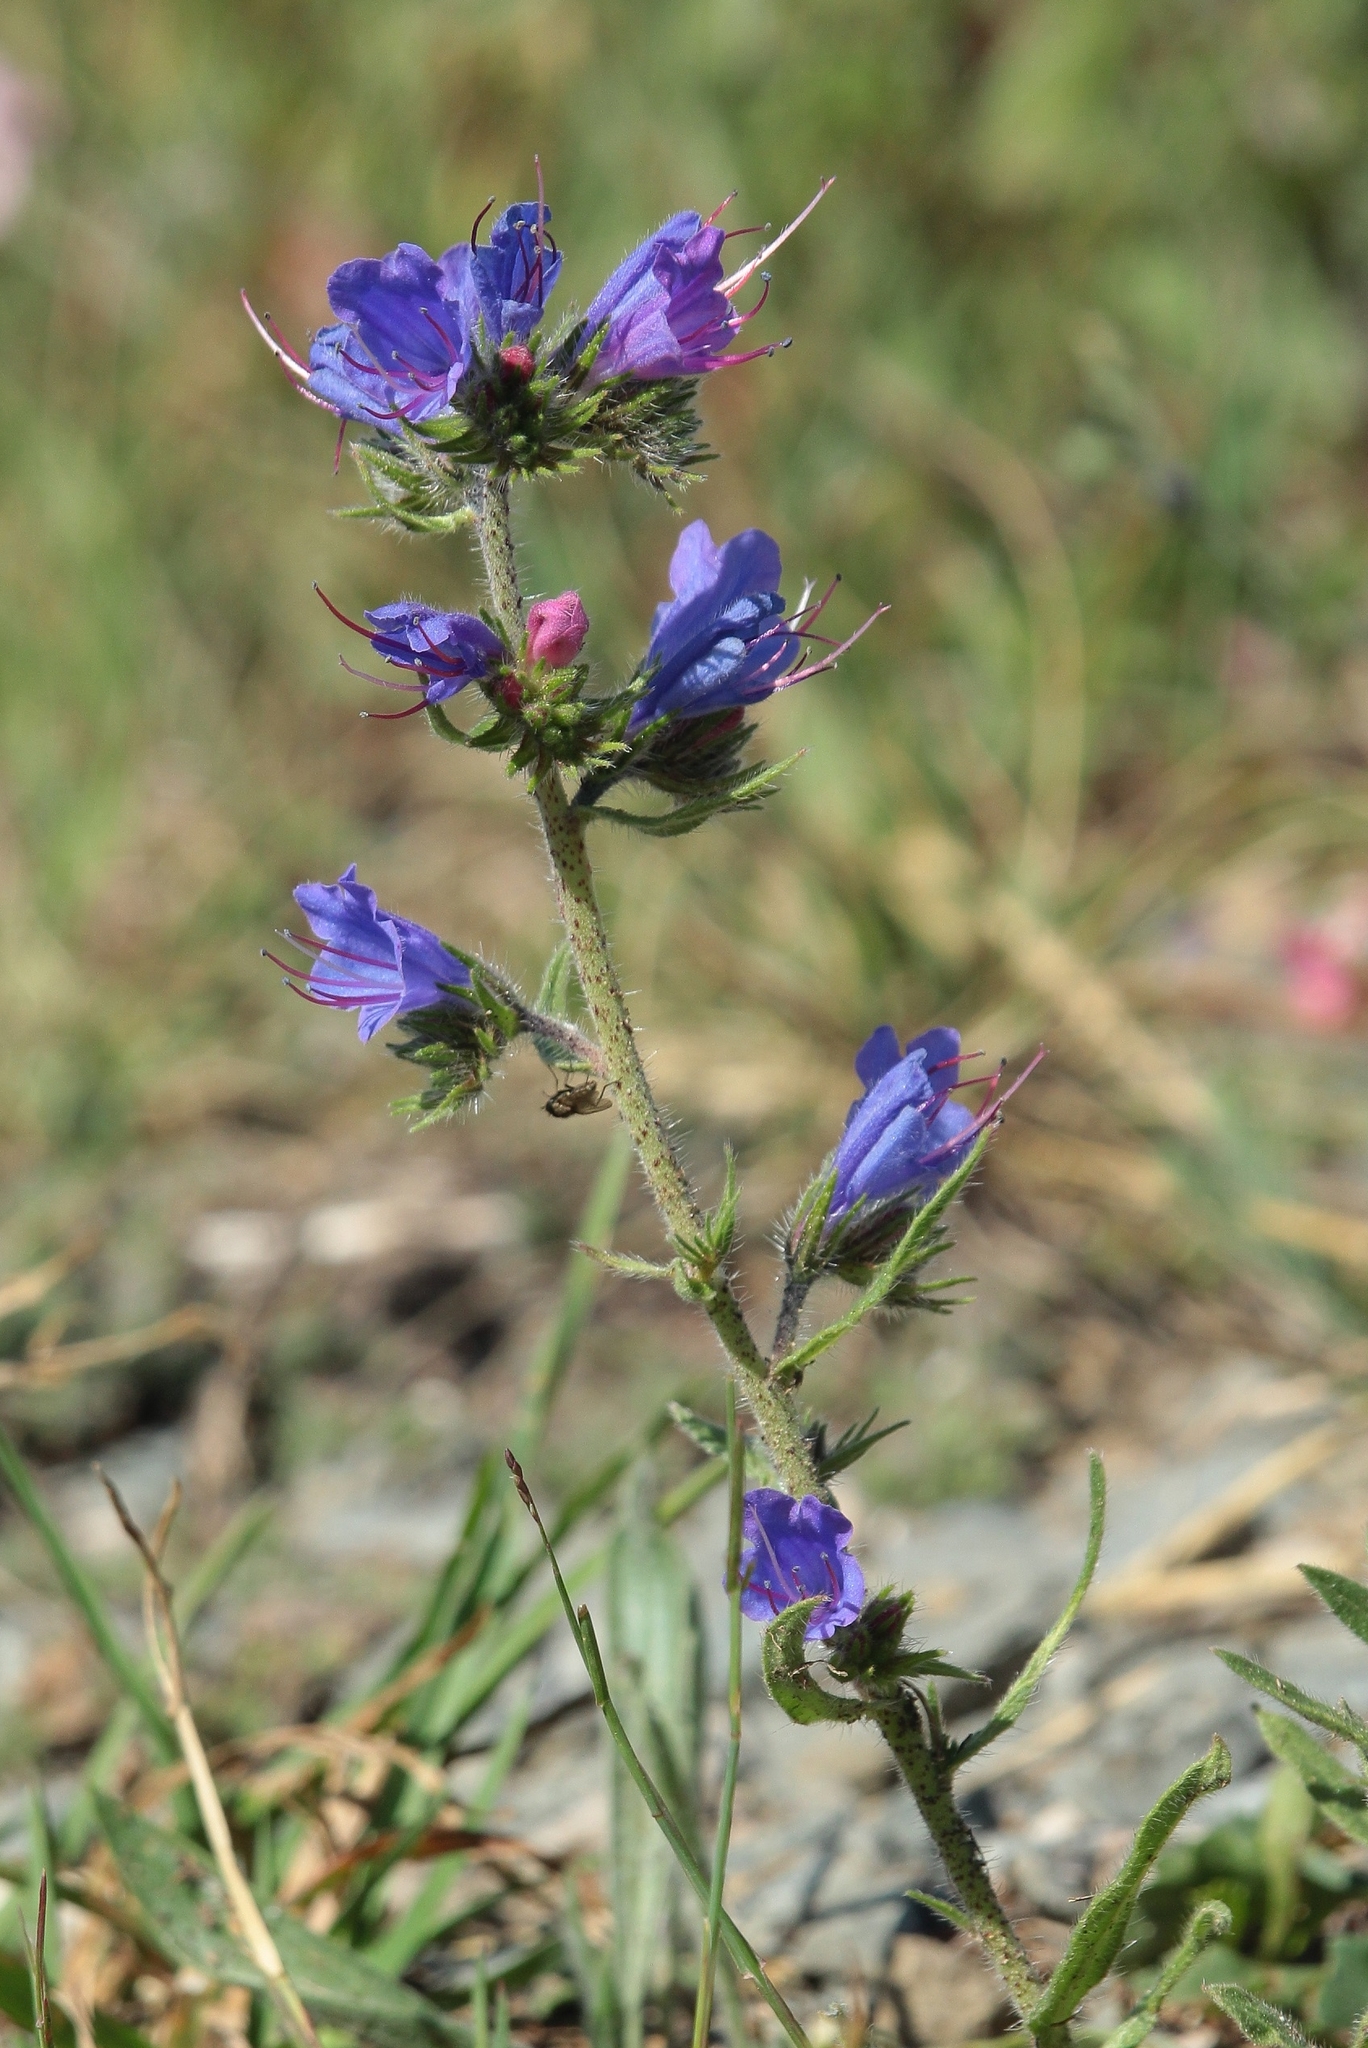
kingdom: Plantae
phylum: Tracheophyta
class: Magnoliopsida
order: Boraginales
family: Boraginaceae
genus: Echium
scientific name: Echium vulgare
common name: Common viper's bugloss
